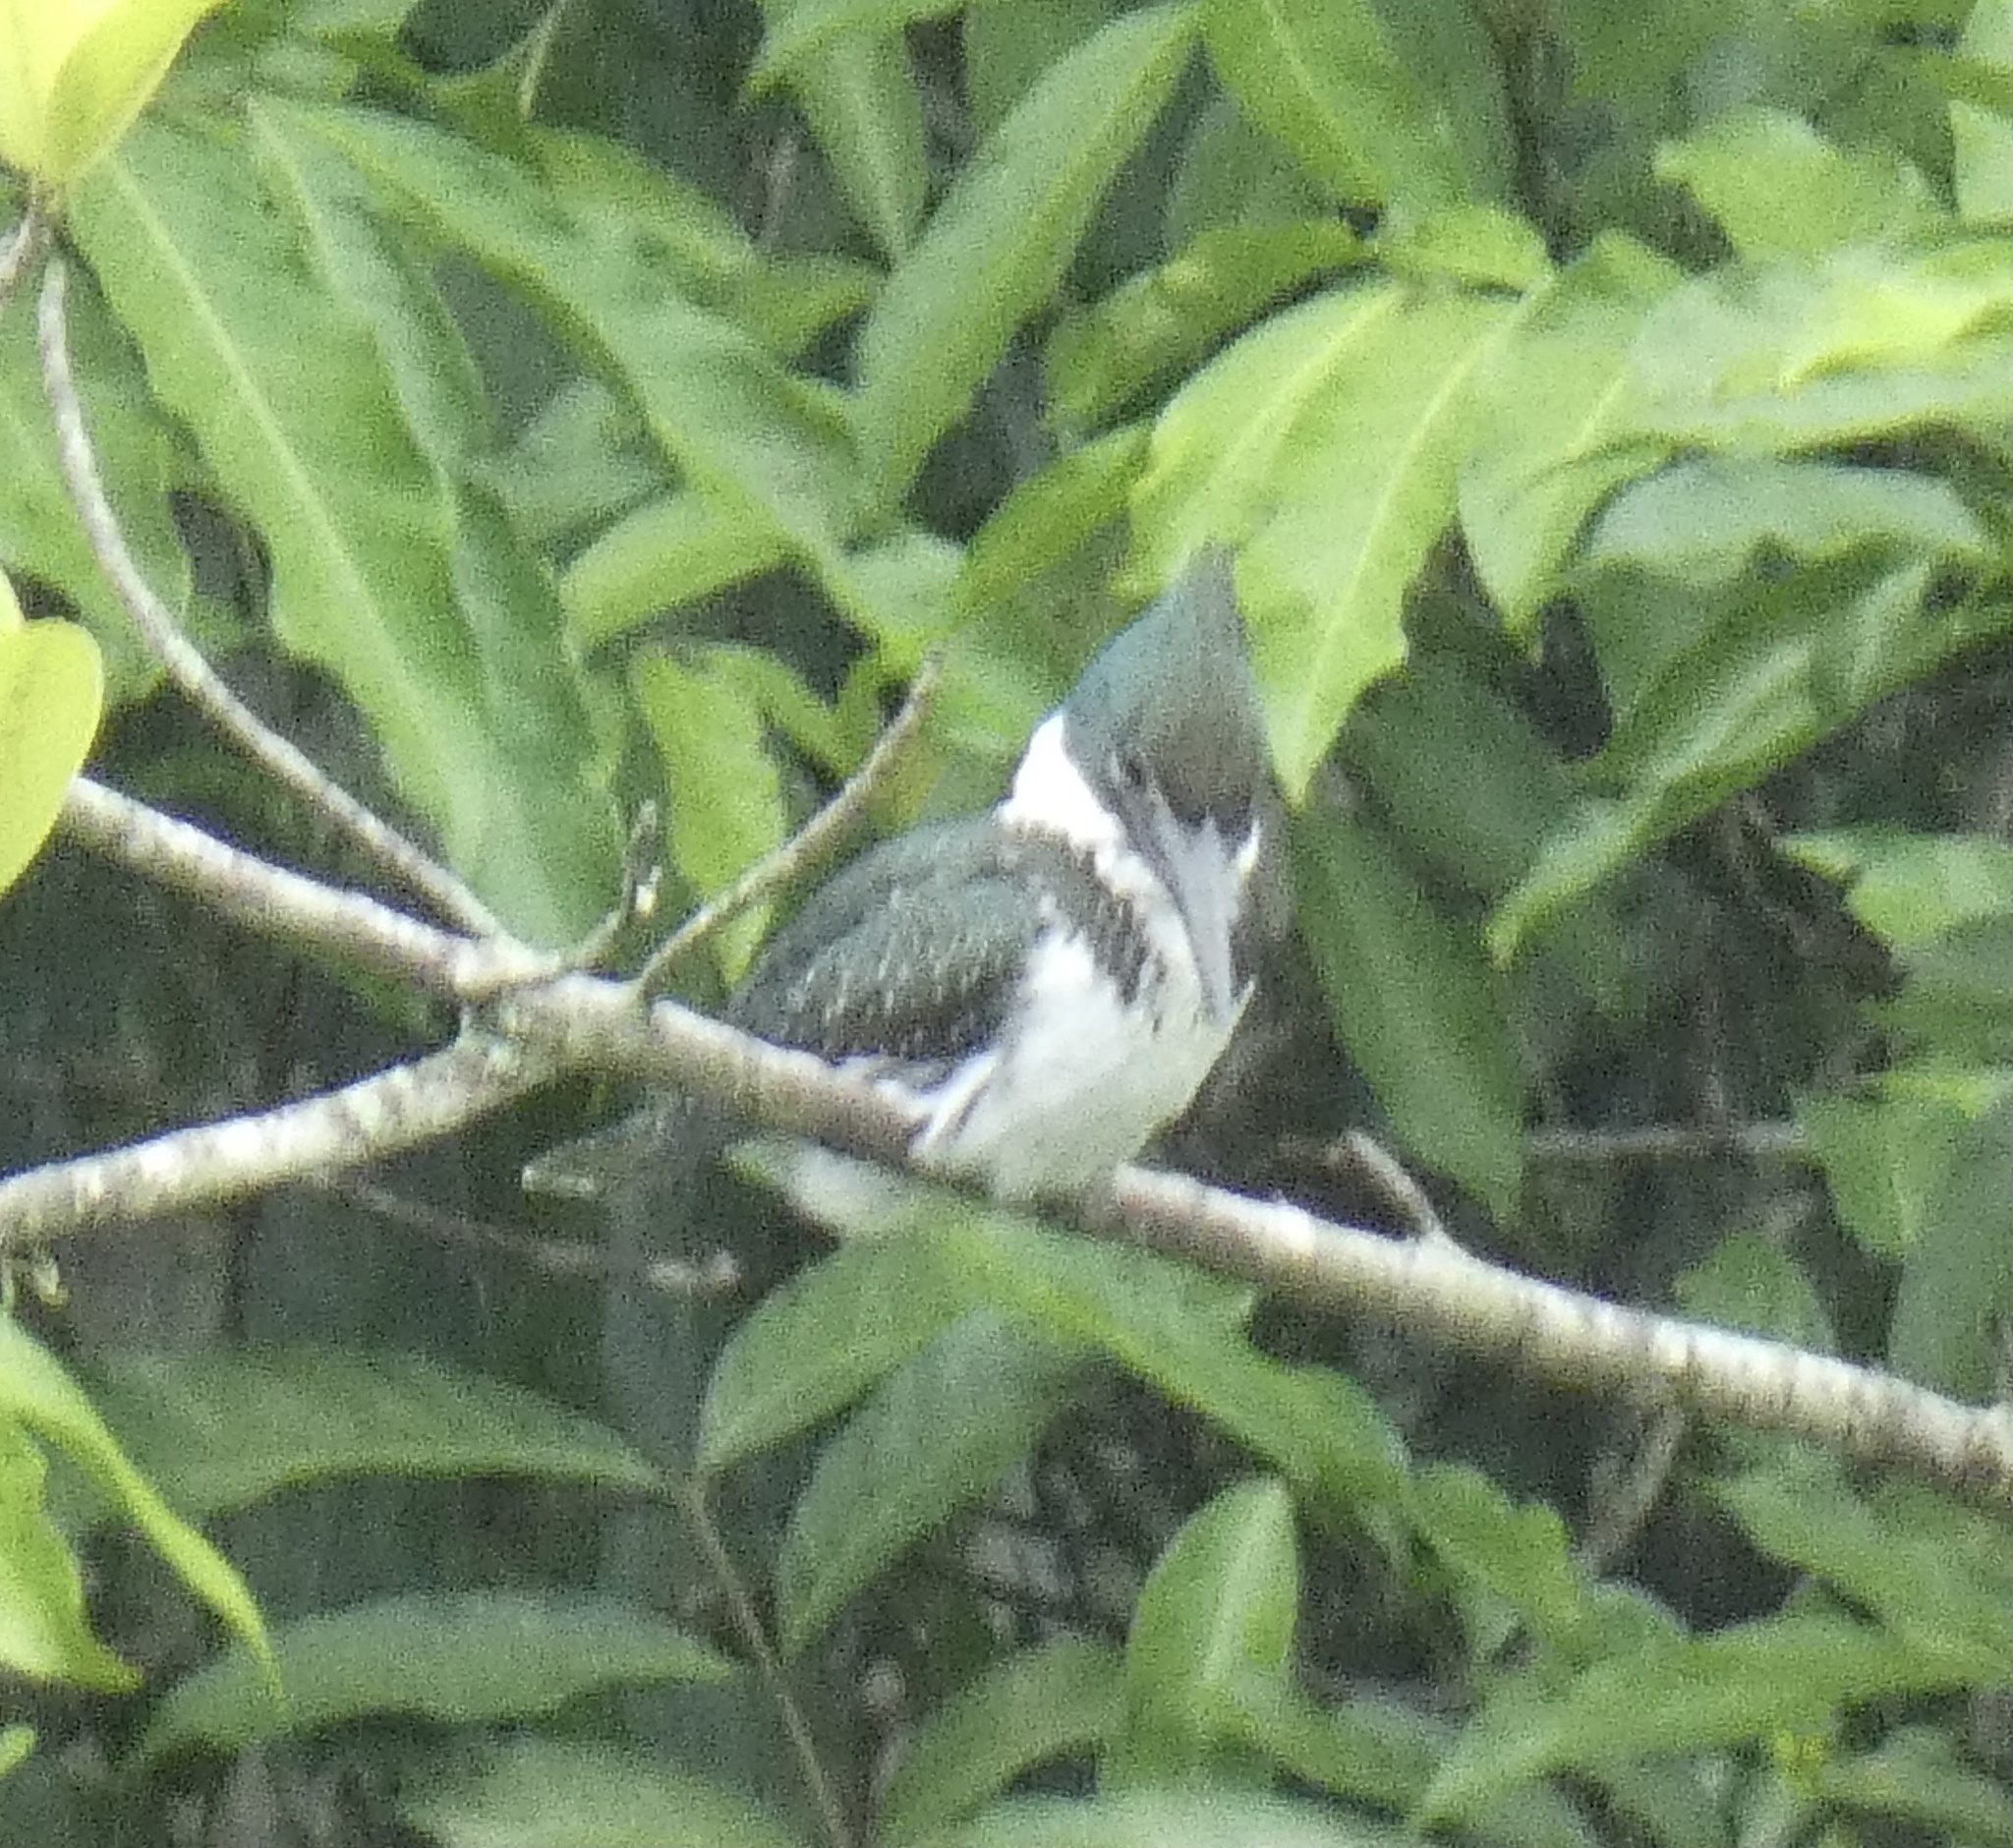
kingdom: Animalia
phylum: Chordata
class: Aves
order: Coraciiformes
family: Alcedinidae
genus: Chloroceryle
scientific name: Chloroceryle amazona
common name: Amazon kingfisher
